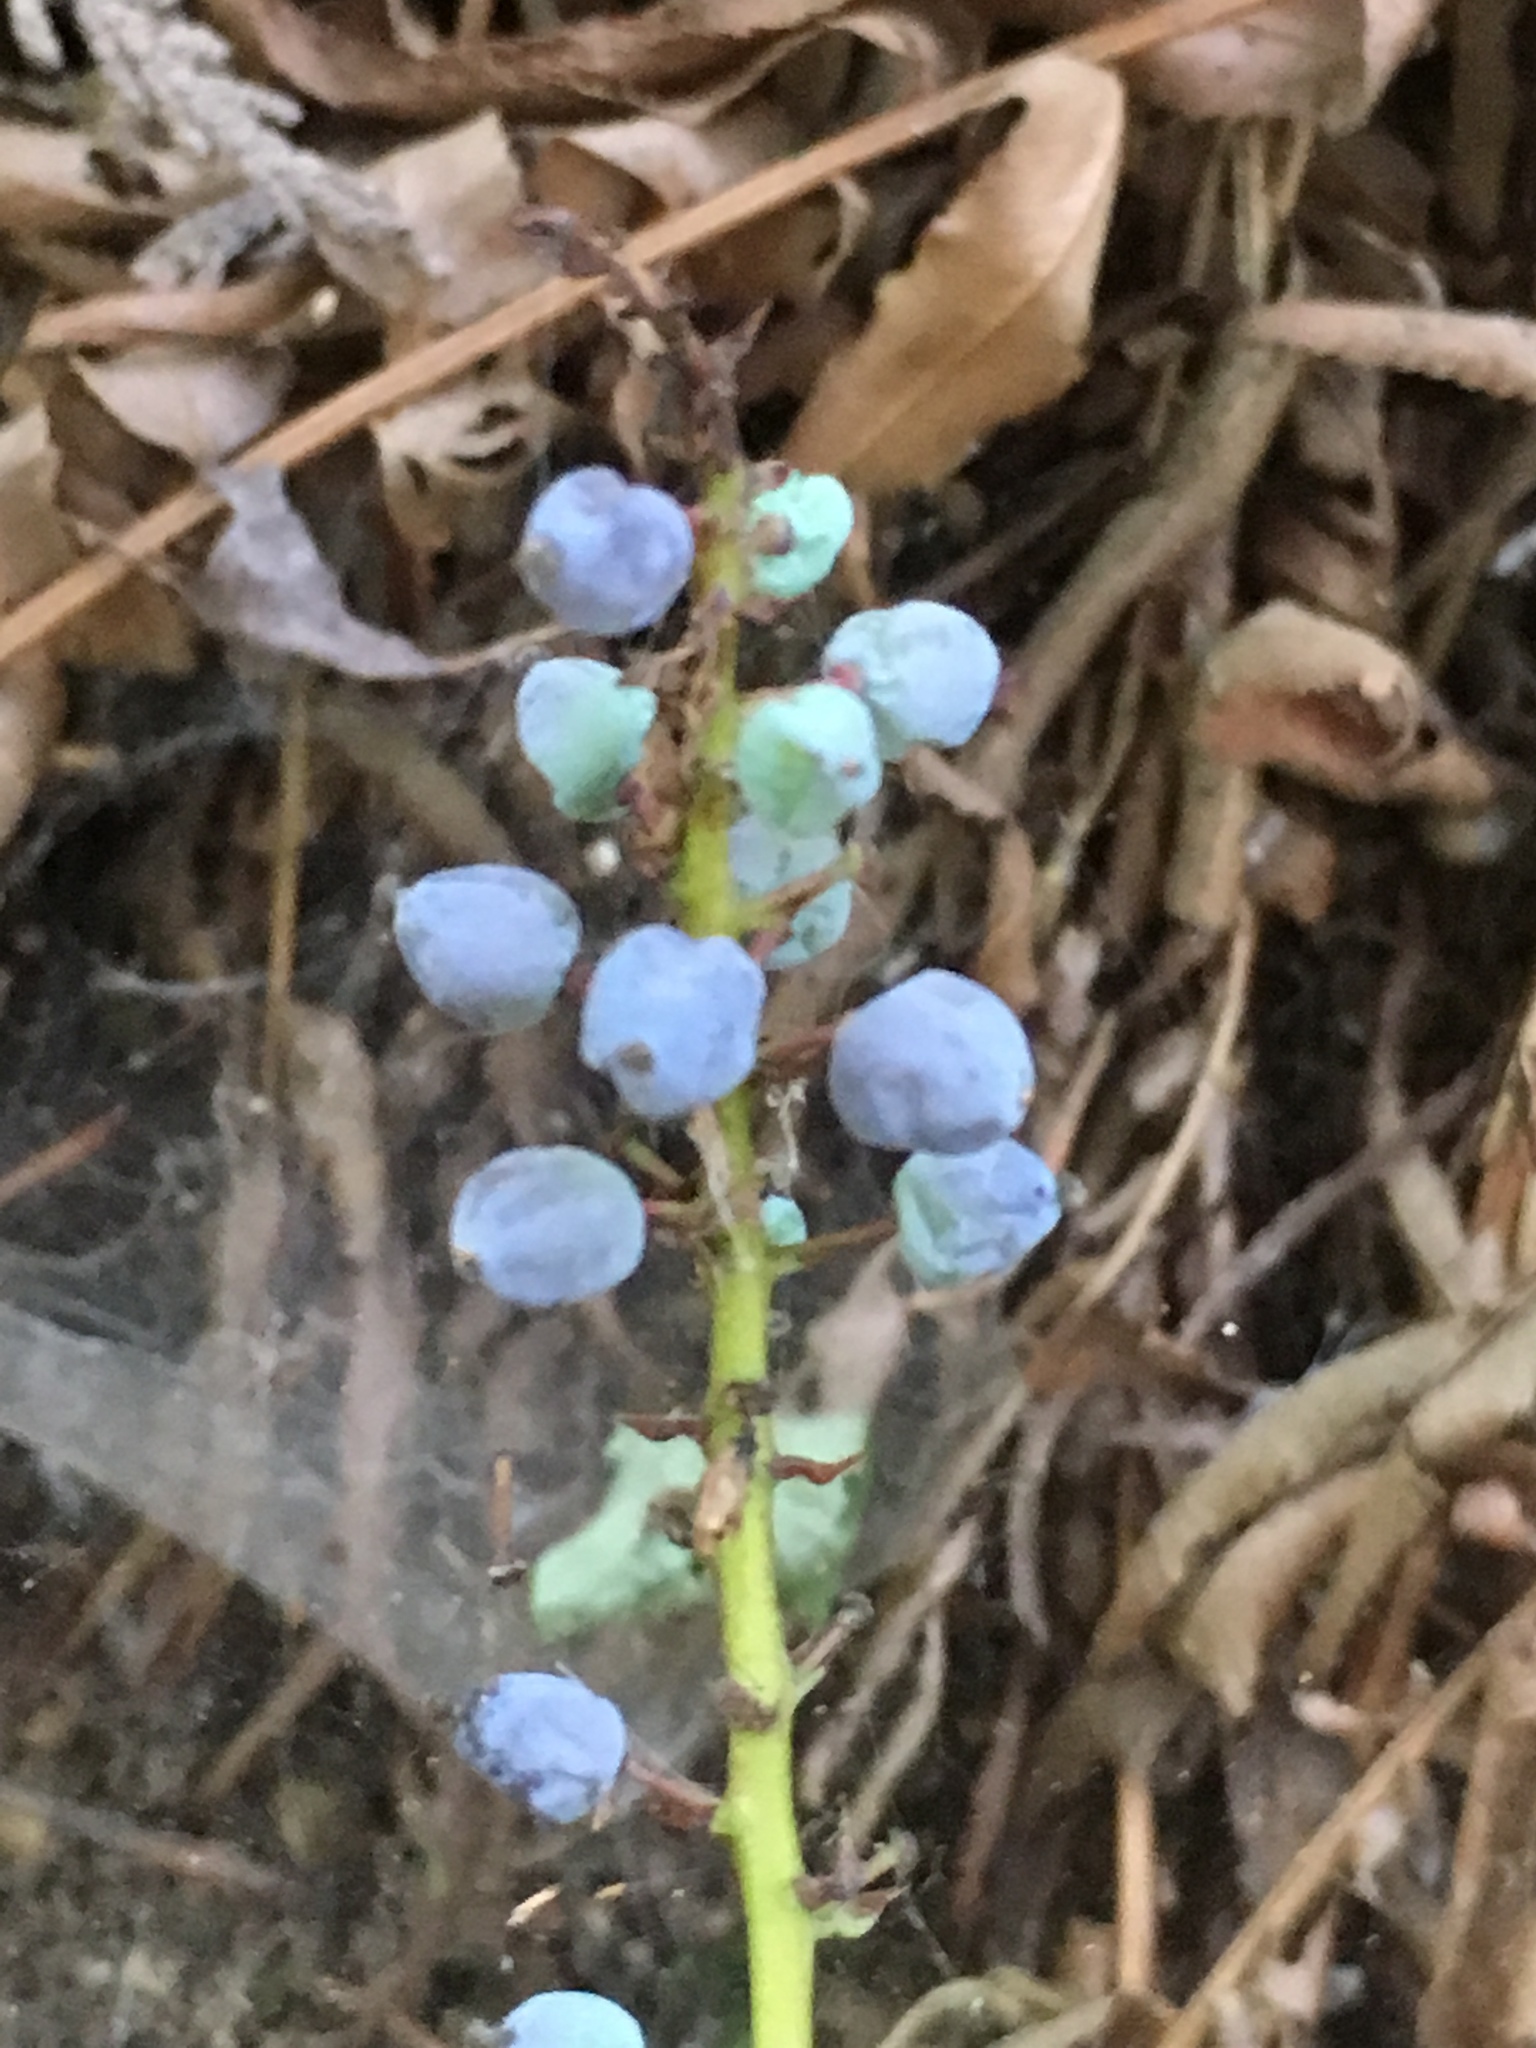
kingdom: Plantae
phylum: Tracheophyta
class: Magnoliopsida
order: Ranunculales
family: Berberidaceae
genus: Mahonia
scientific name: Mahonia nervosa
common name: Cascade oregon-grape
